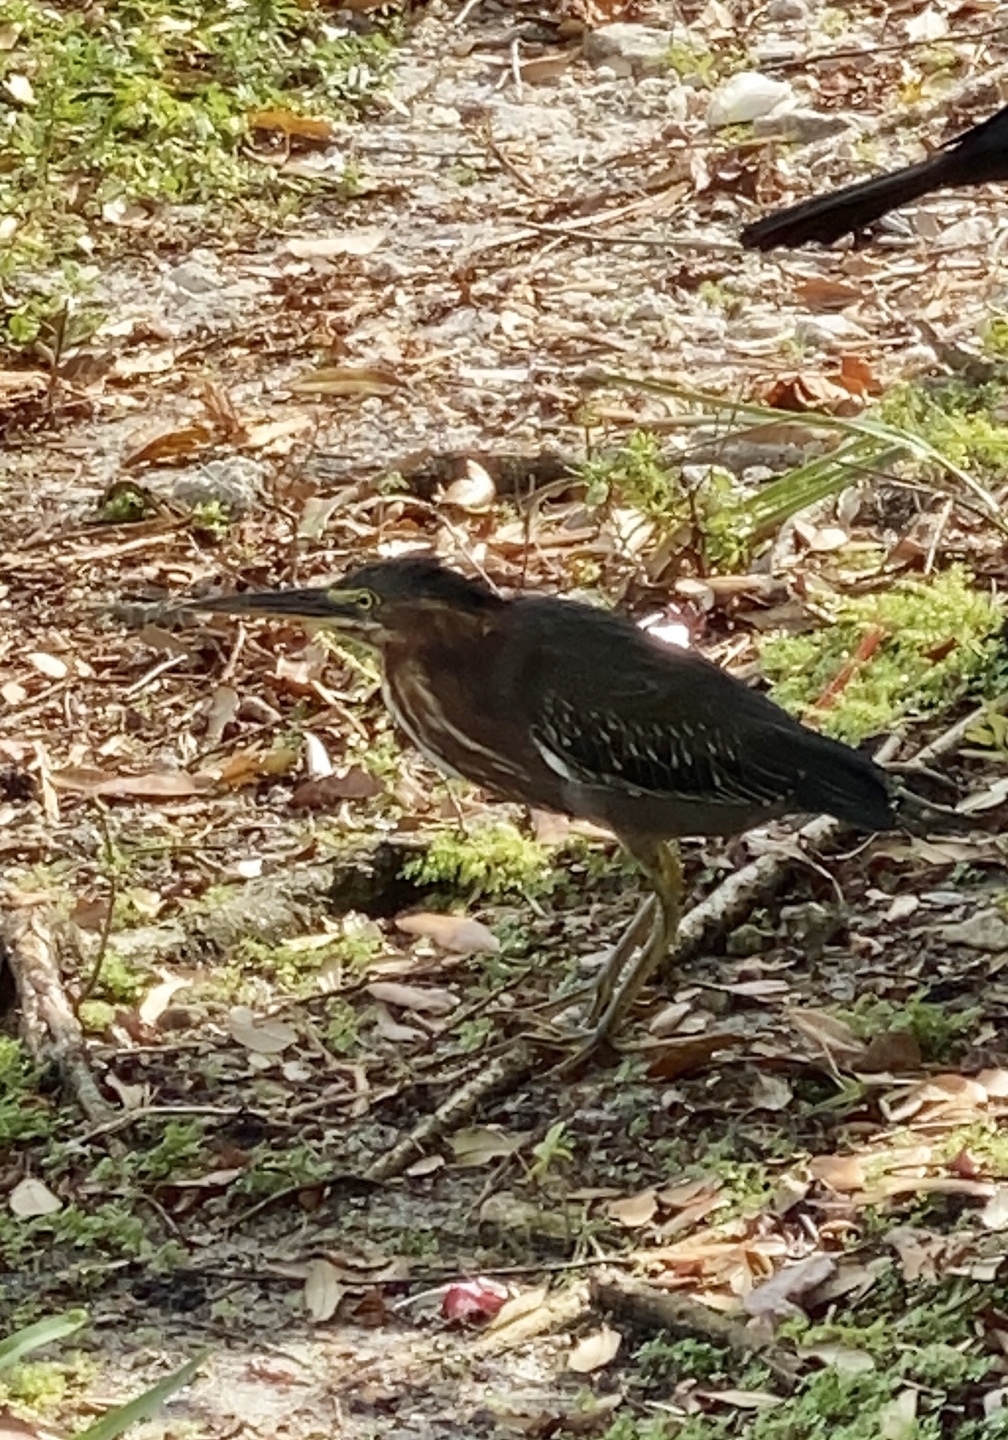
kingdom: Animalia
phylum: Chordata
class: Aves
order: Pelecaniformes
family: Ardeidae
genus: Butorides
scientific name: Butorides virescens
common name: Green heron
